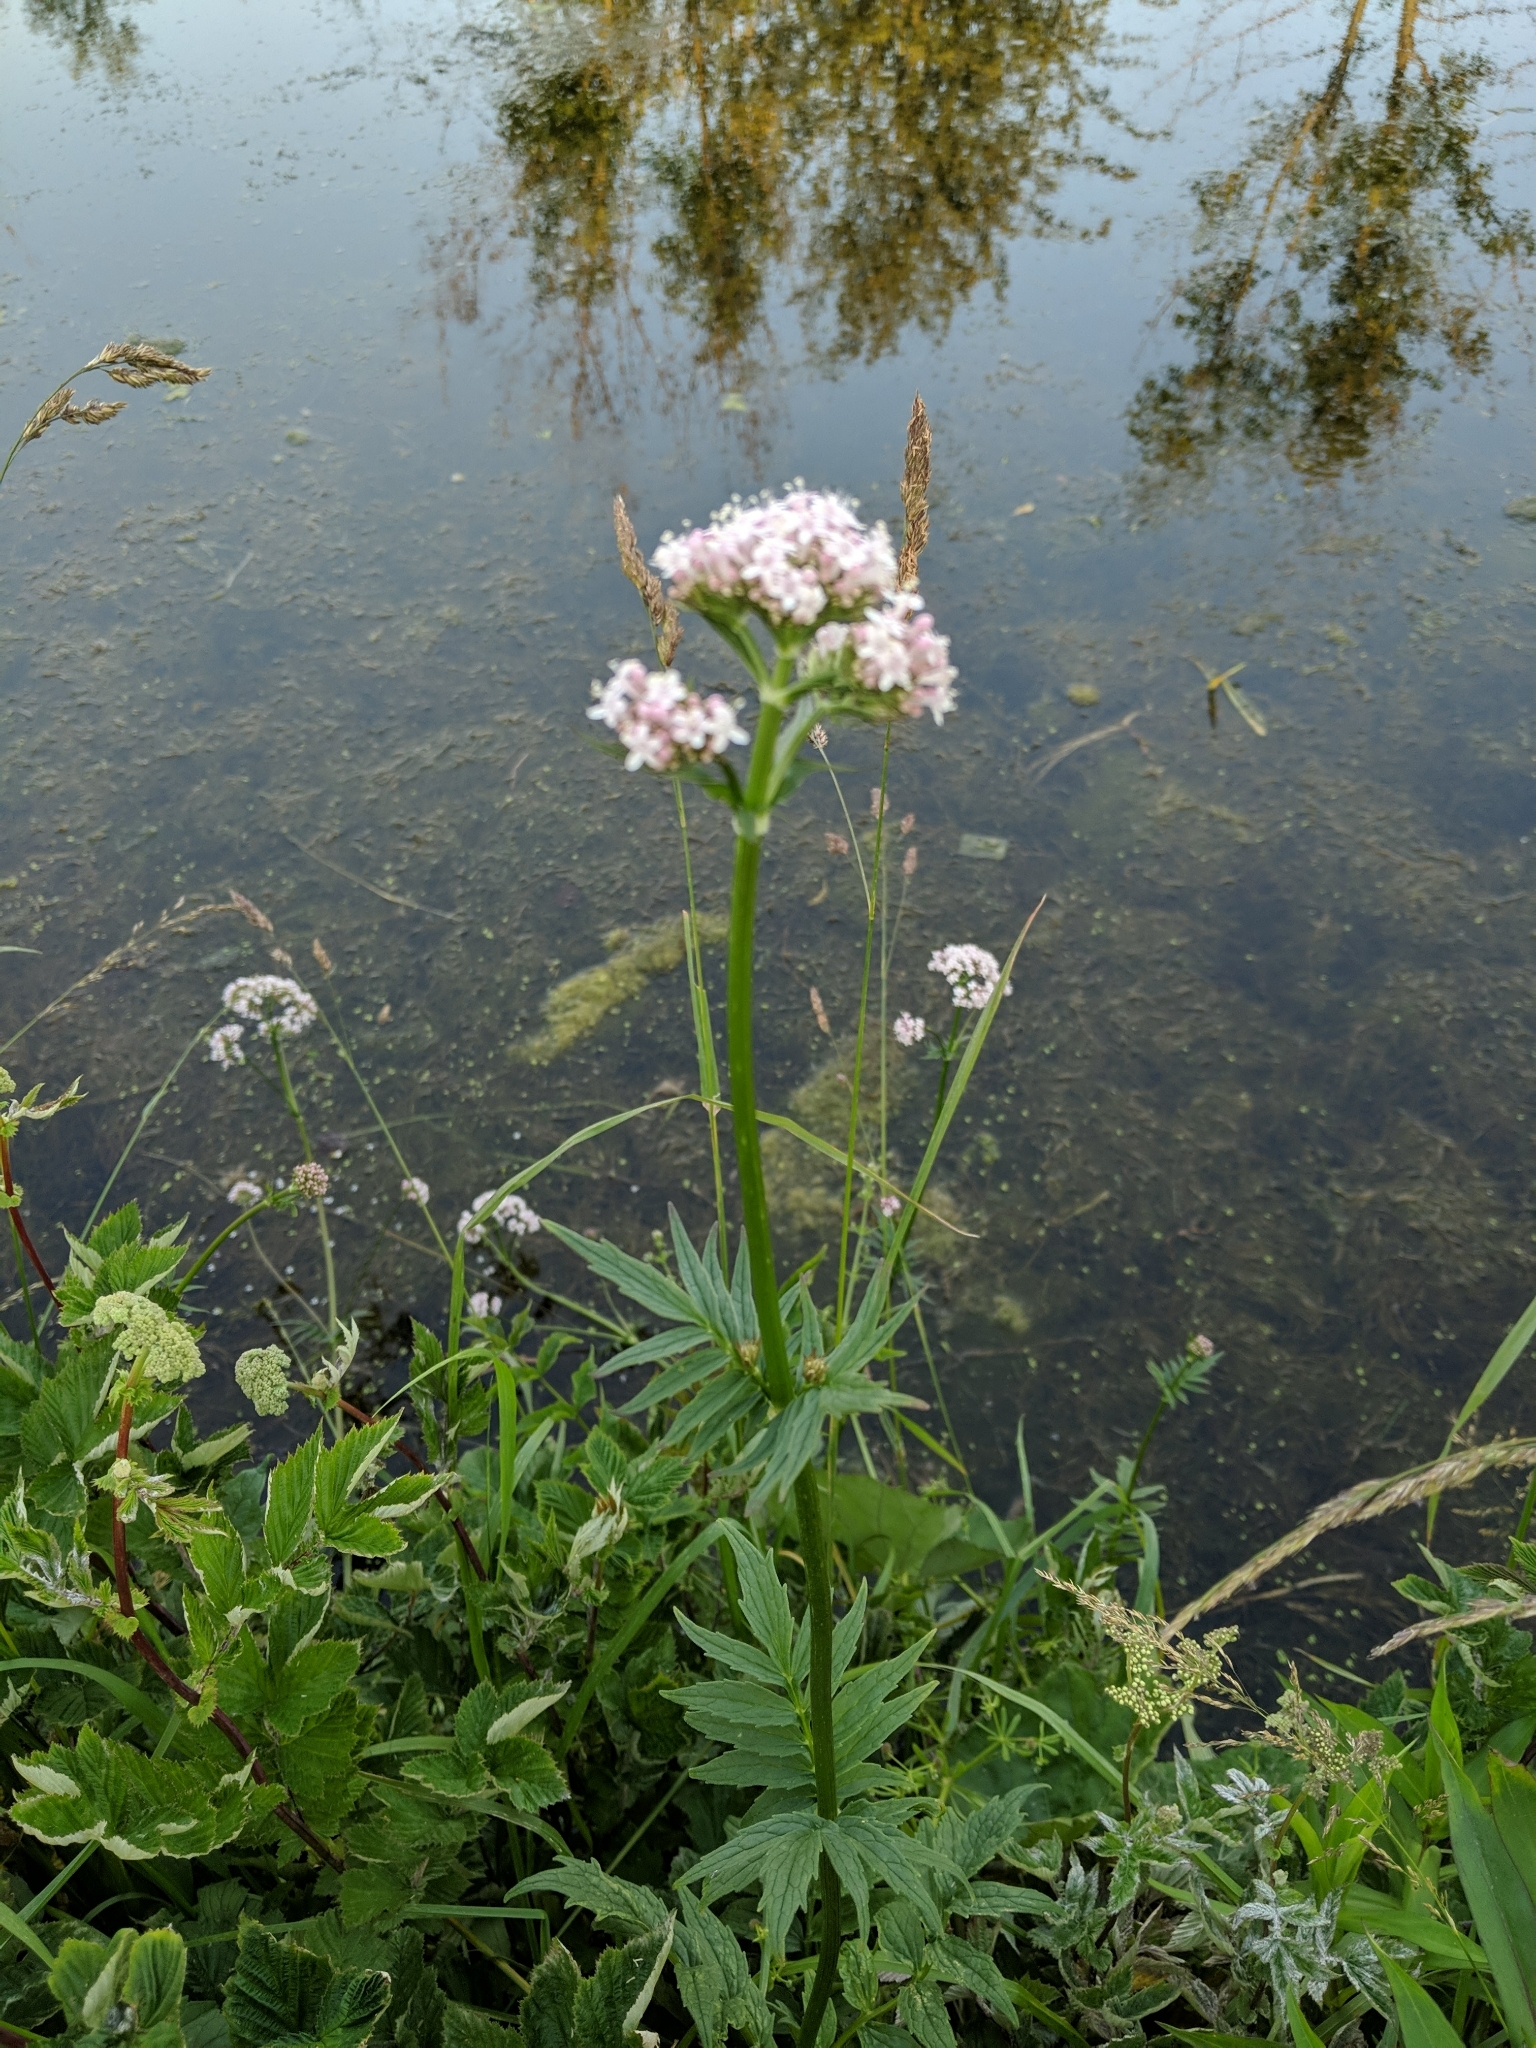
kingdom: Plantae
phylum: Tracheophyta
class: Magnoliopsida
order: Dipsacales
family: Caprifoliaceae
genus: Valeriana
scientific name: Valeriana officinalis
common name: Common valerian
